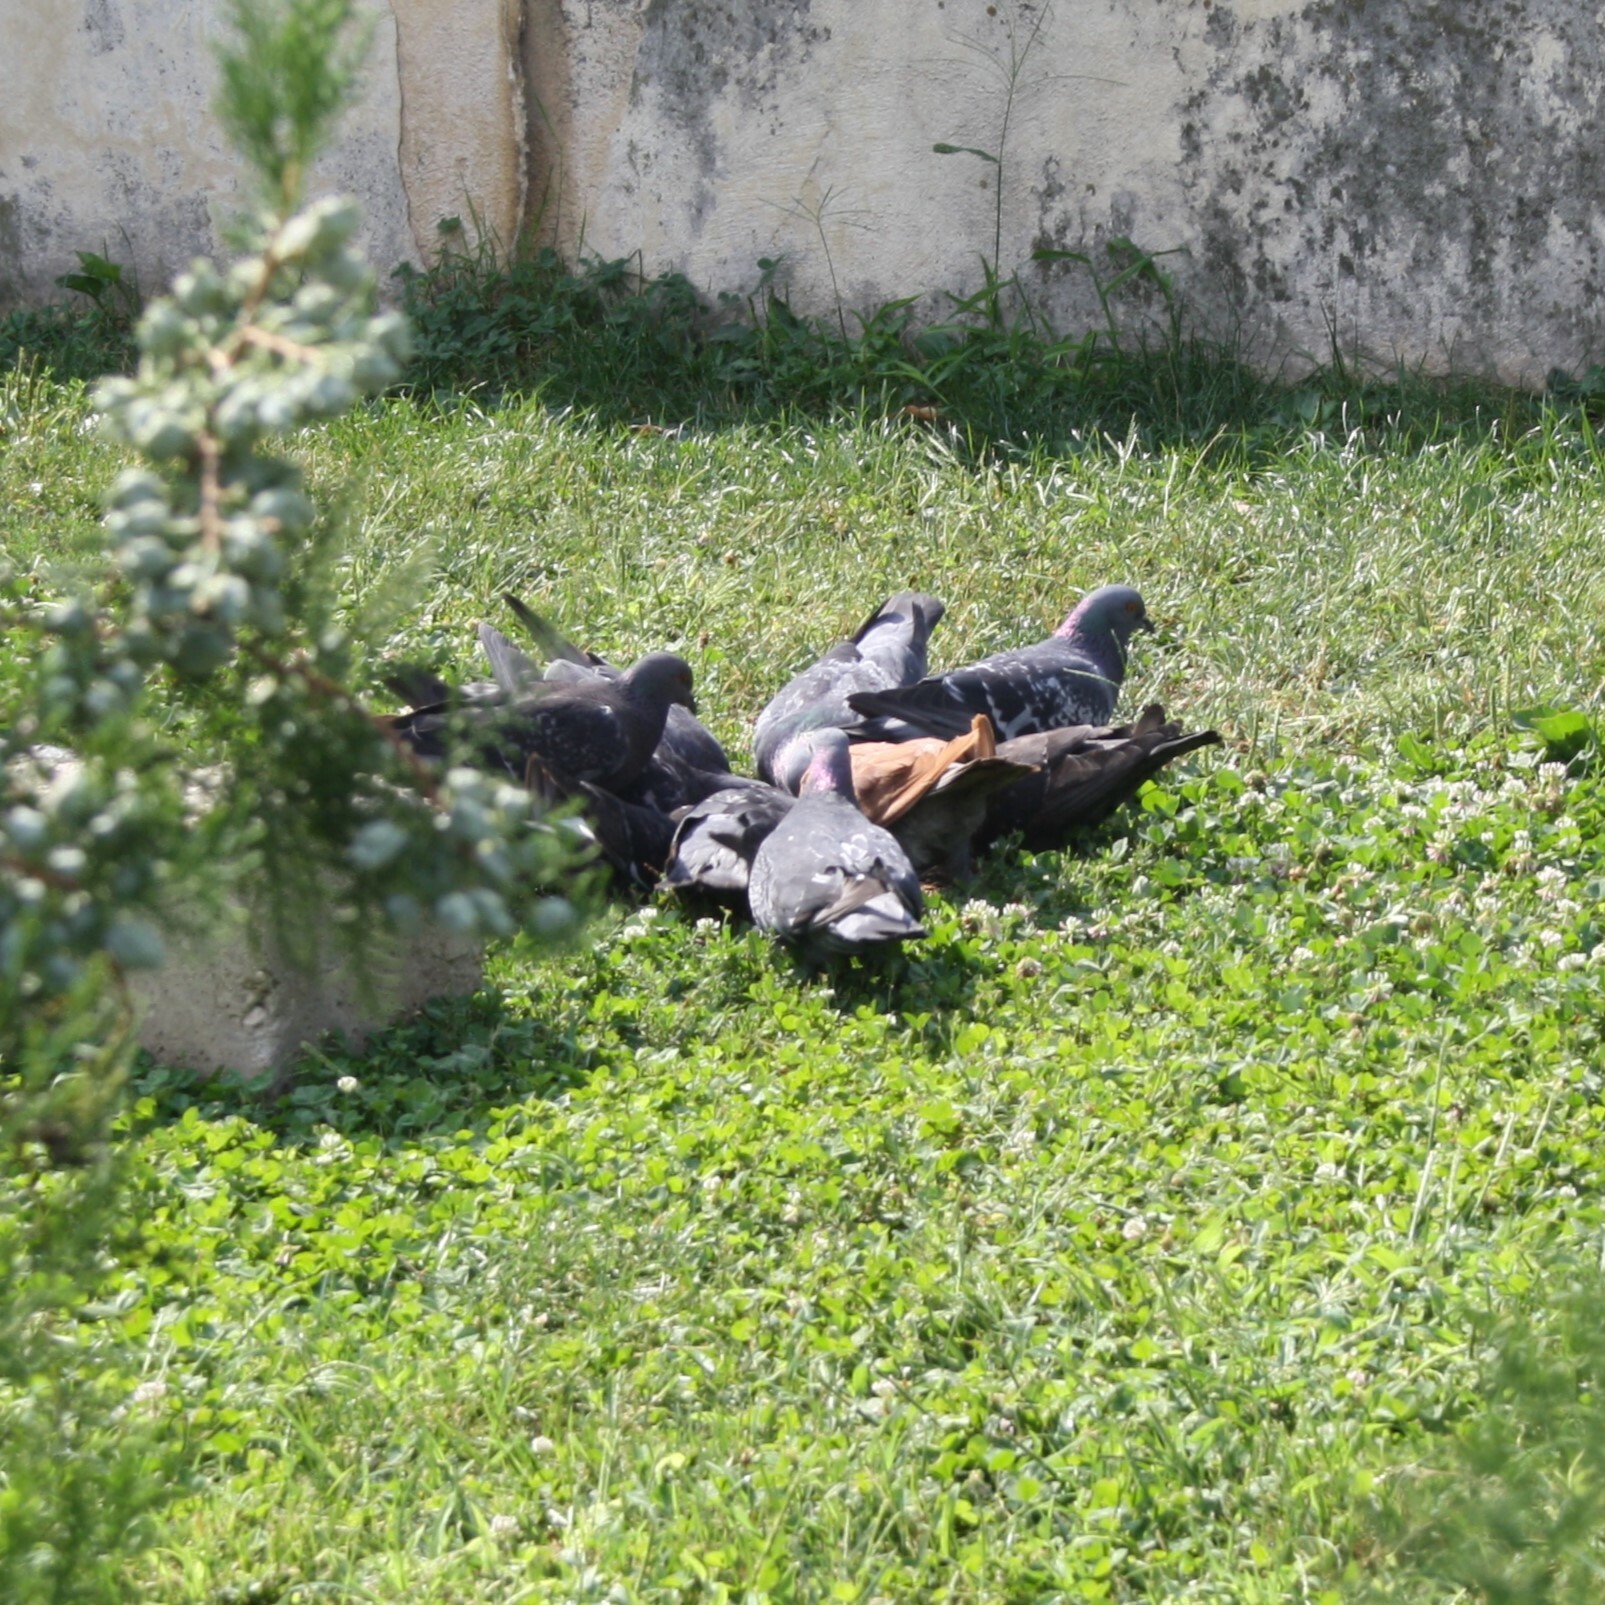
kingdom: Animalia
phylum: Chordata
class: Aves
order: Columbiformes
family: Columbidae
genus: Columba
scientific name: Columba livia
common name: Rock pigeon
